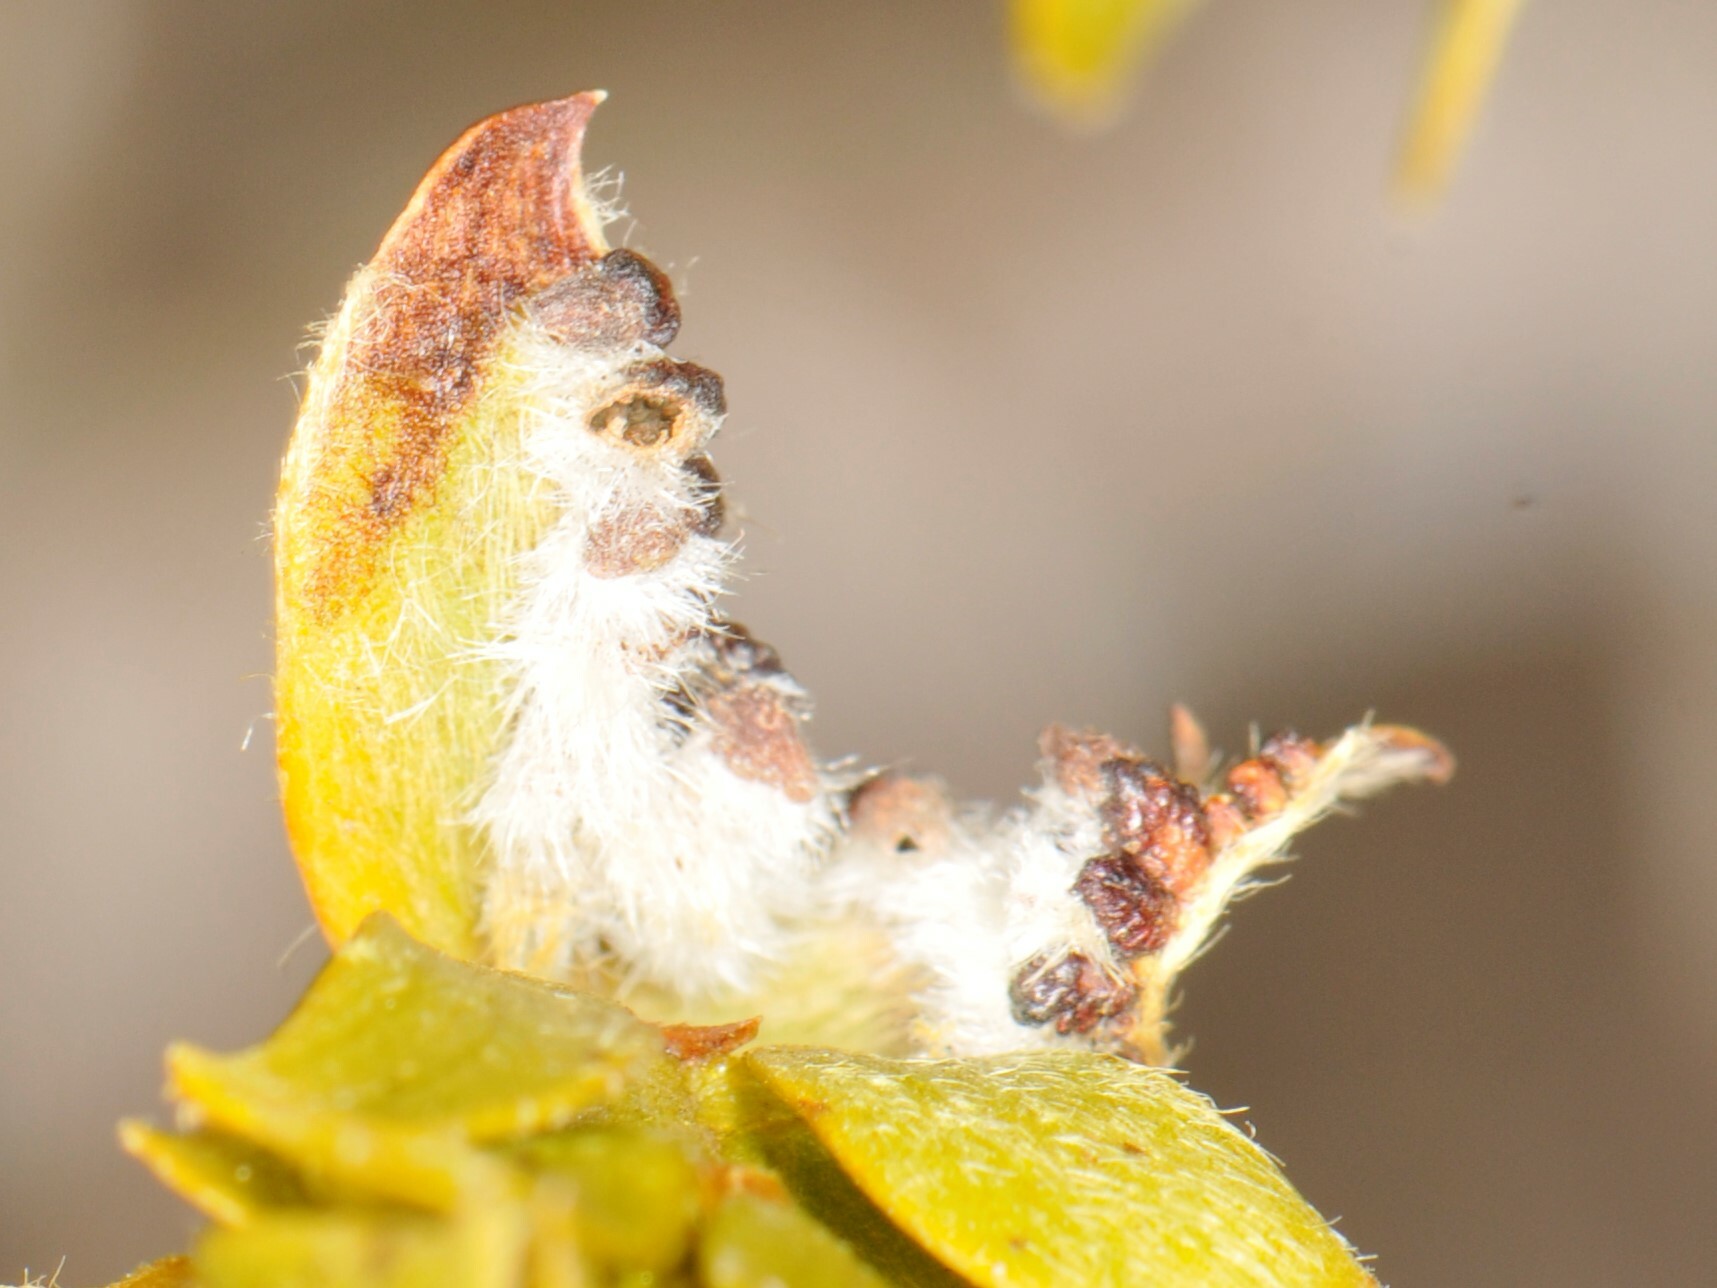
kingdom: Animalia
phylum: Arthropoda
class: Insecta
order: Diptera
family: Cecidomyiidae
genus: Asphondylia
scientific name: Asphondylia barbata
